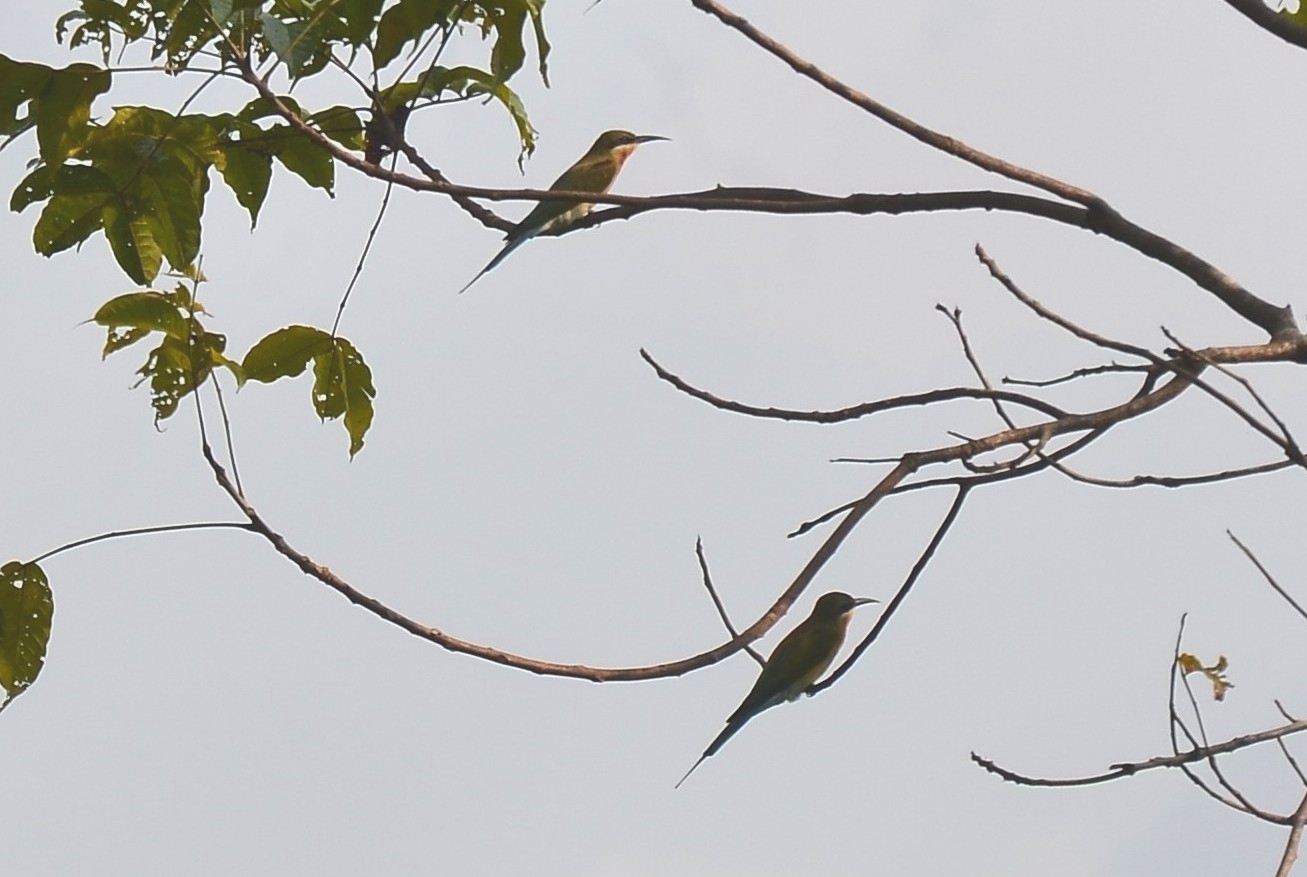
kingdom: Animalia
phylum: Chordata
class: Aves
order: Coraciiformes
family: Meropidae
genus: Merops
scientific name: Merops philippinus
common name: Blue-tailed bee-eater
